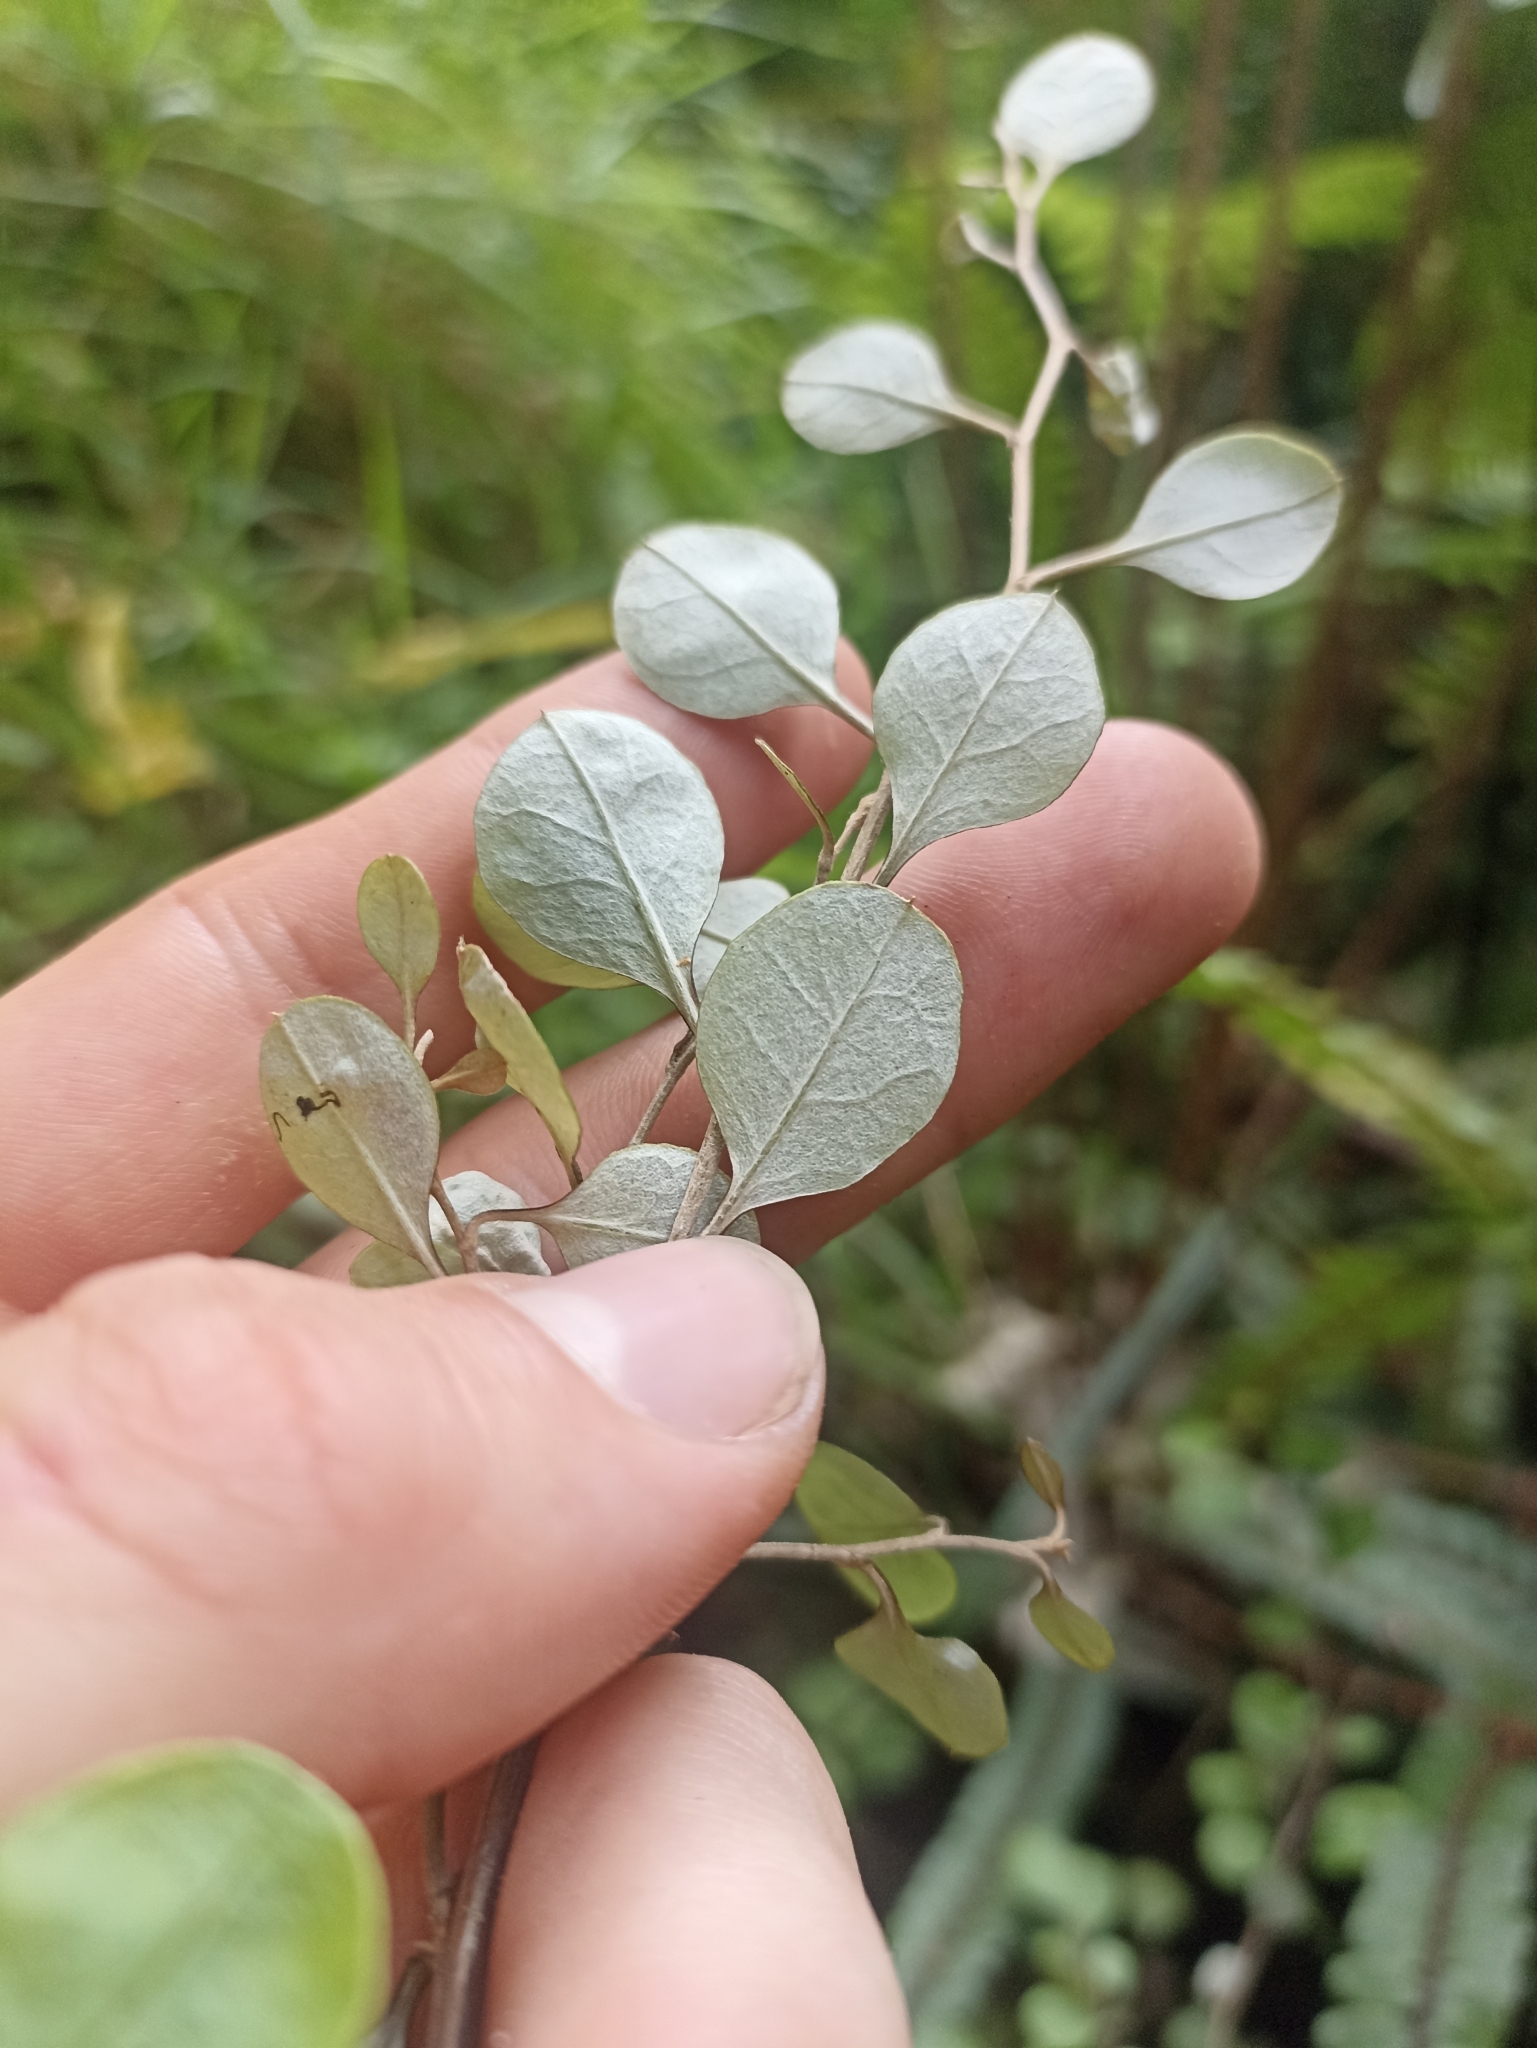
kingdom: Plantae
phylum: Tracheophyta
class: Magnoliopsida
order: Asterales
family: Asteraceae
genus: Ozothamnus
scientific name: Ozothamnus glomeratus
